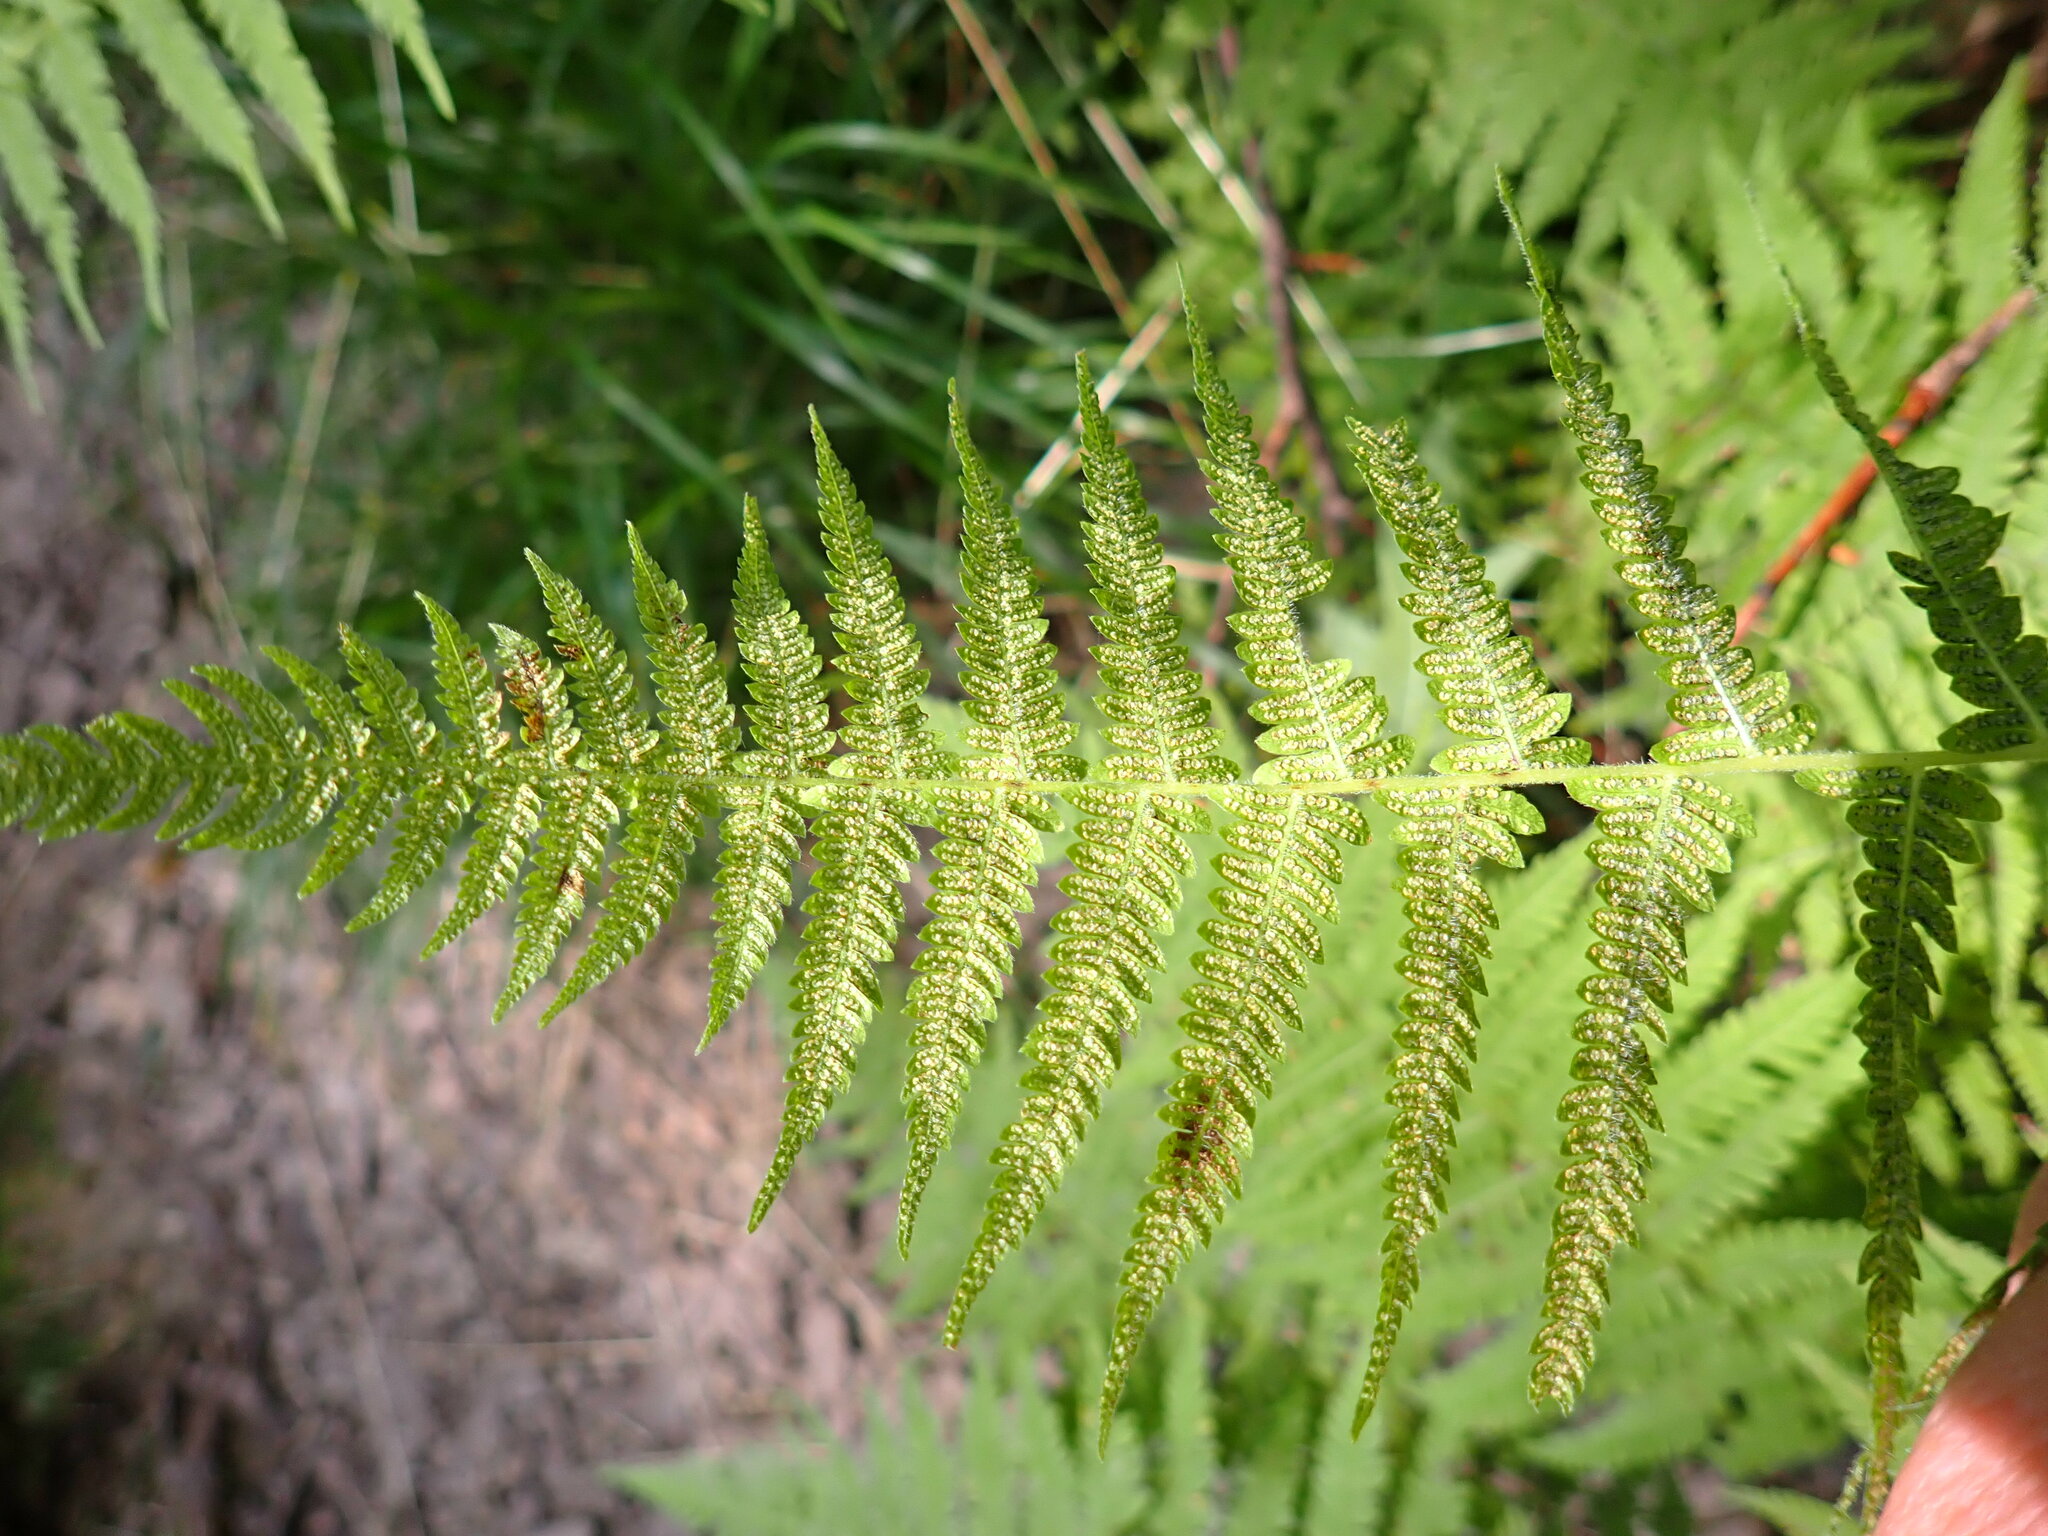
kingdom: Plantae
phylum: Tracheophyta
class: Polypodiopsida
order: Polypodiales
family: Thelypteridaceae
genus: Amauropelta
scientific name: Amauropelta noveboracensis
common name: New york fern
